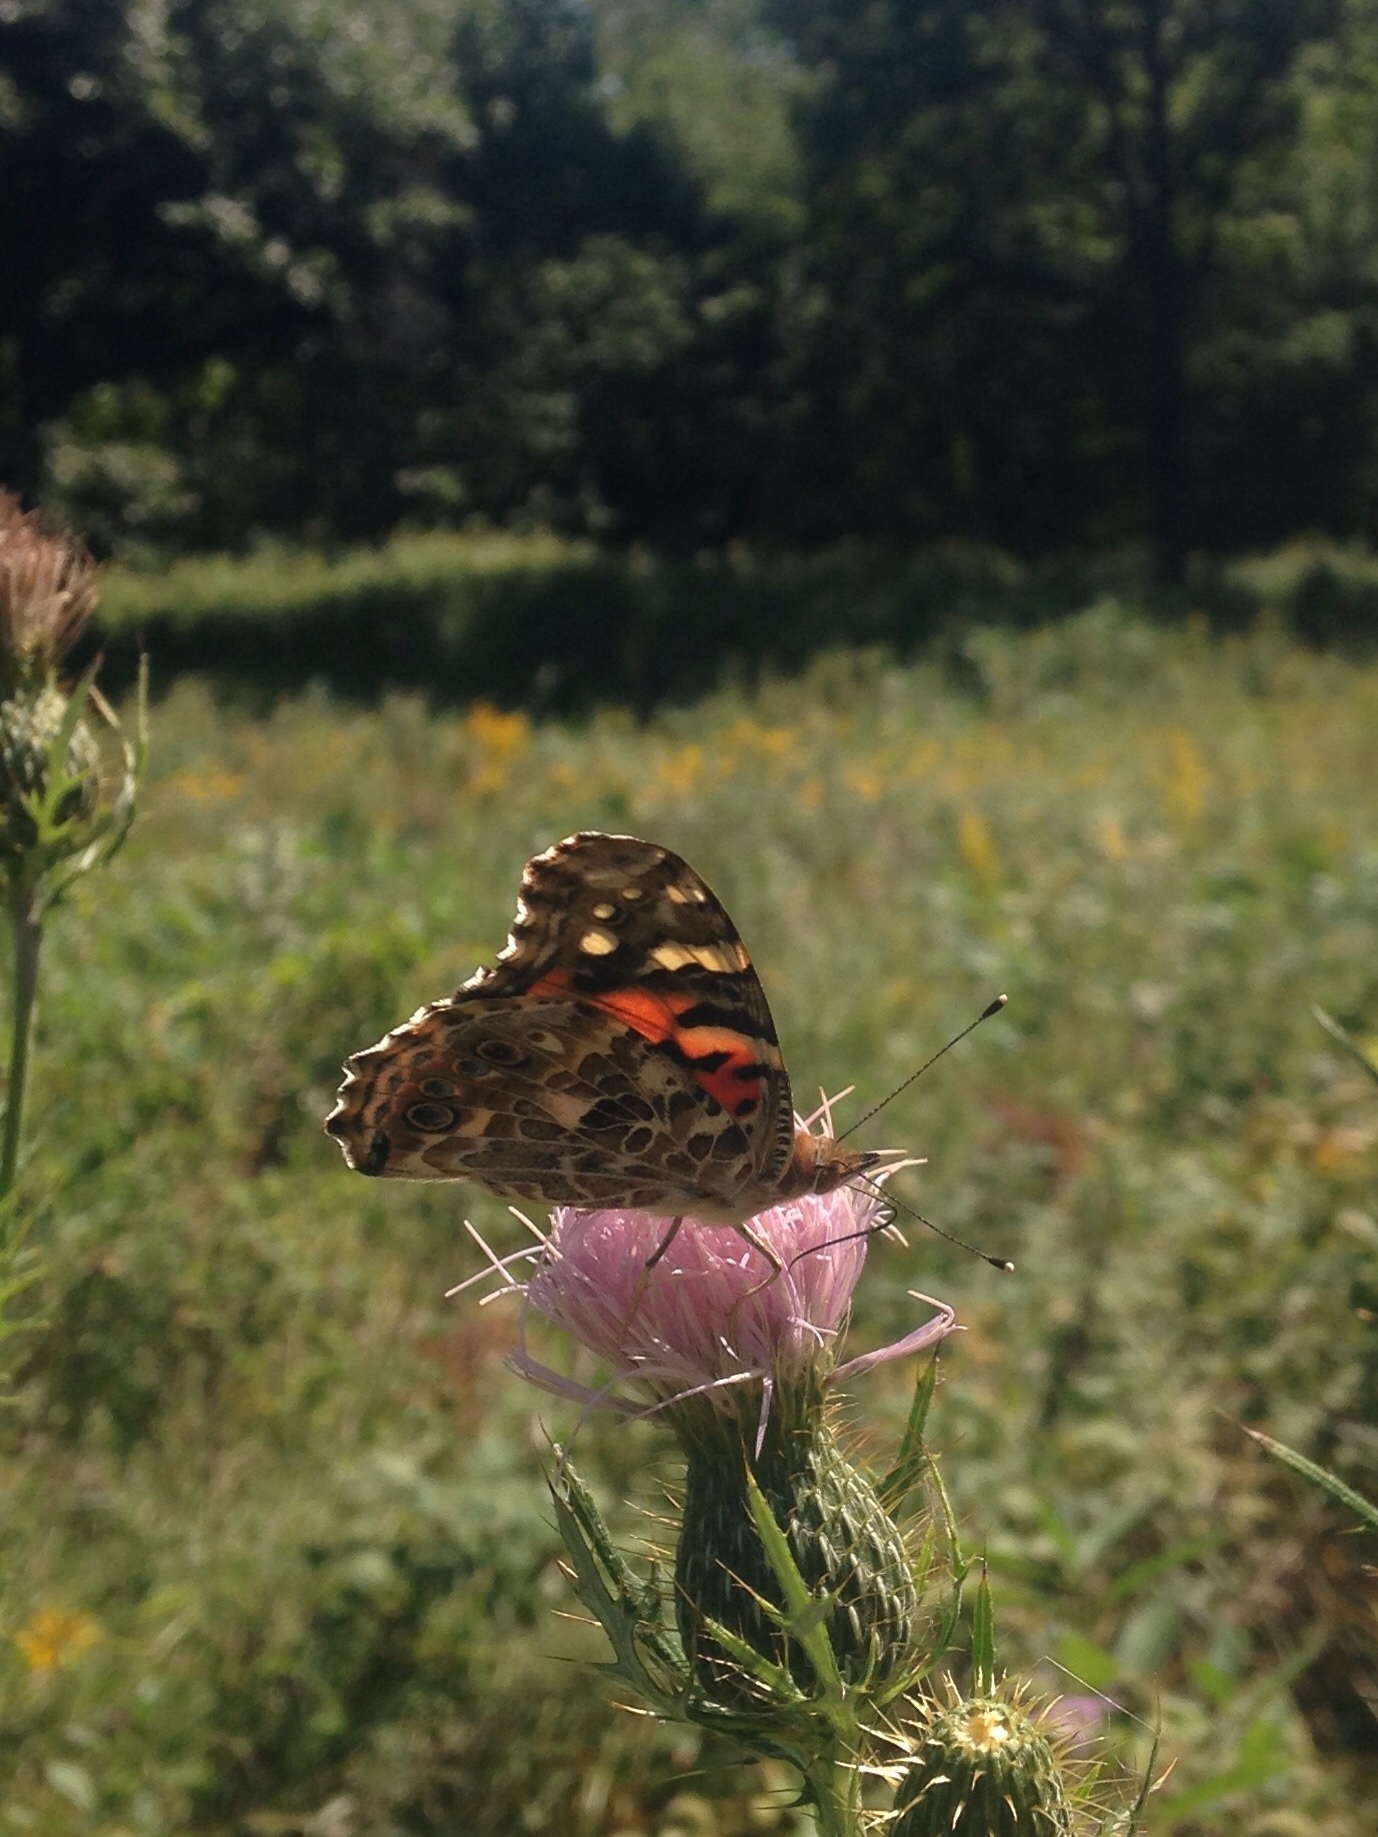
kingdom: Animalia
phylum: Arthropoda
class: Insecta
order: Lepidoptera
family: Nymphalidae
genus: Vanessa
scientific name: Vanessa cardui
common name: Painted lady
